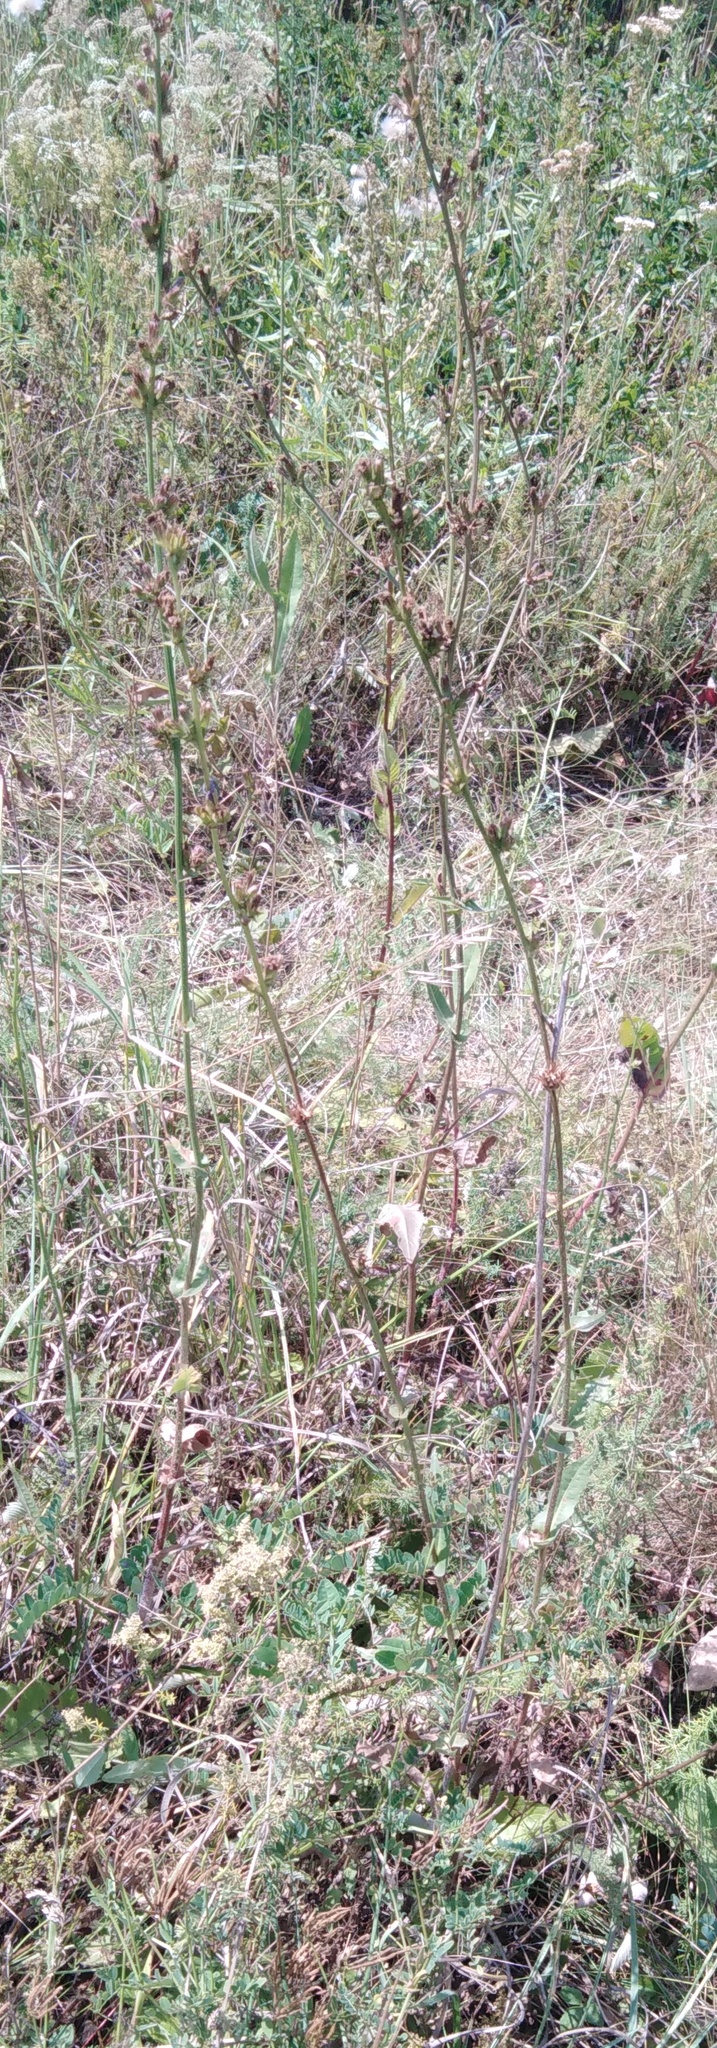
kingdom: Plantae
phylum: Tracheophyta
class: Magnoliopsida
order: Asterales
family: Asteraceae
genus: Cichorium
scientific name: Cichorium intybus
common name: Chicory
